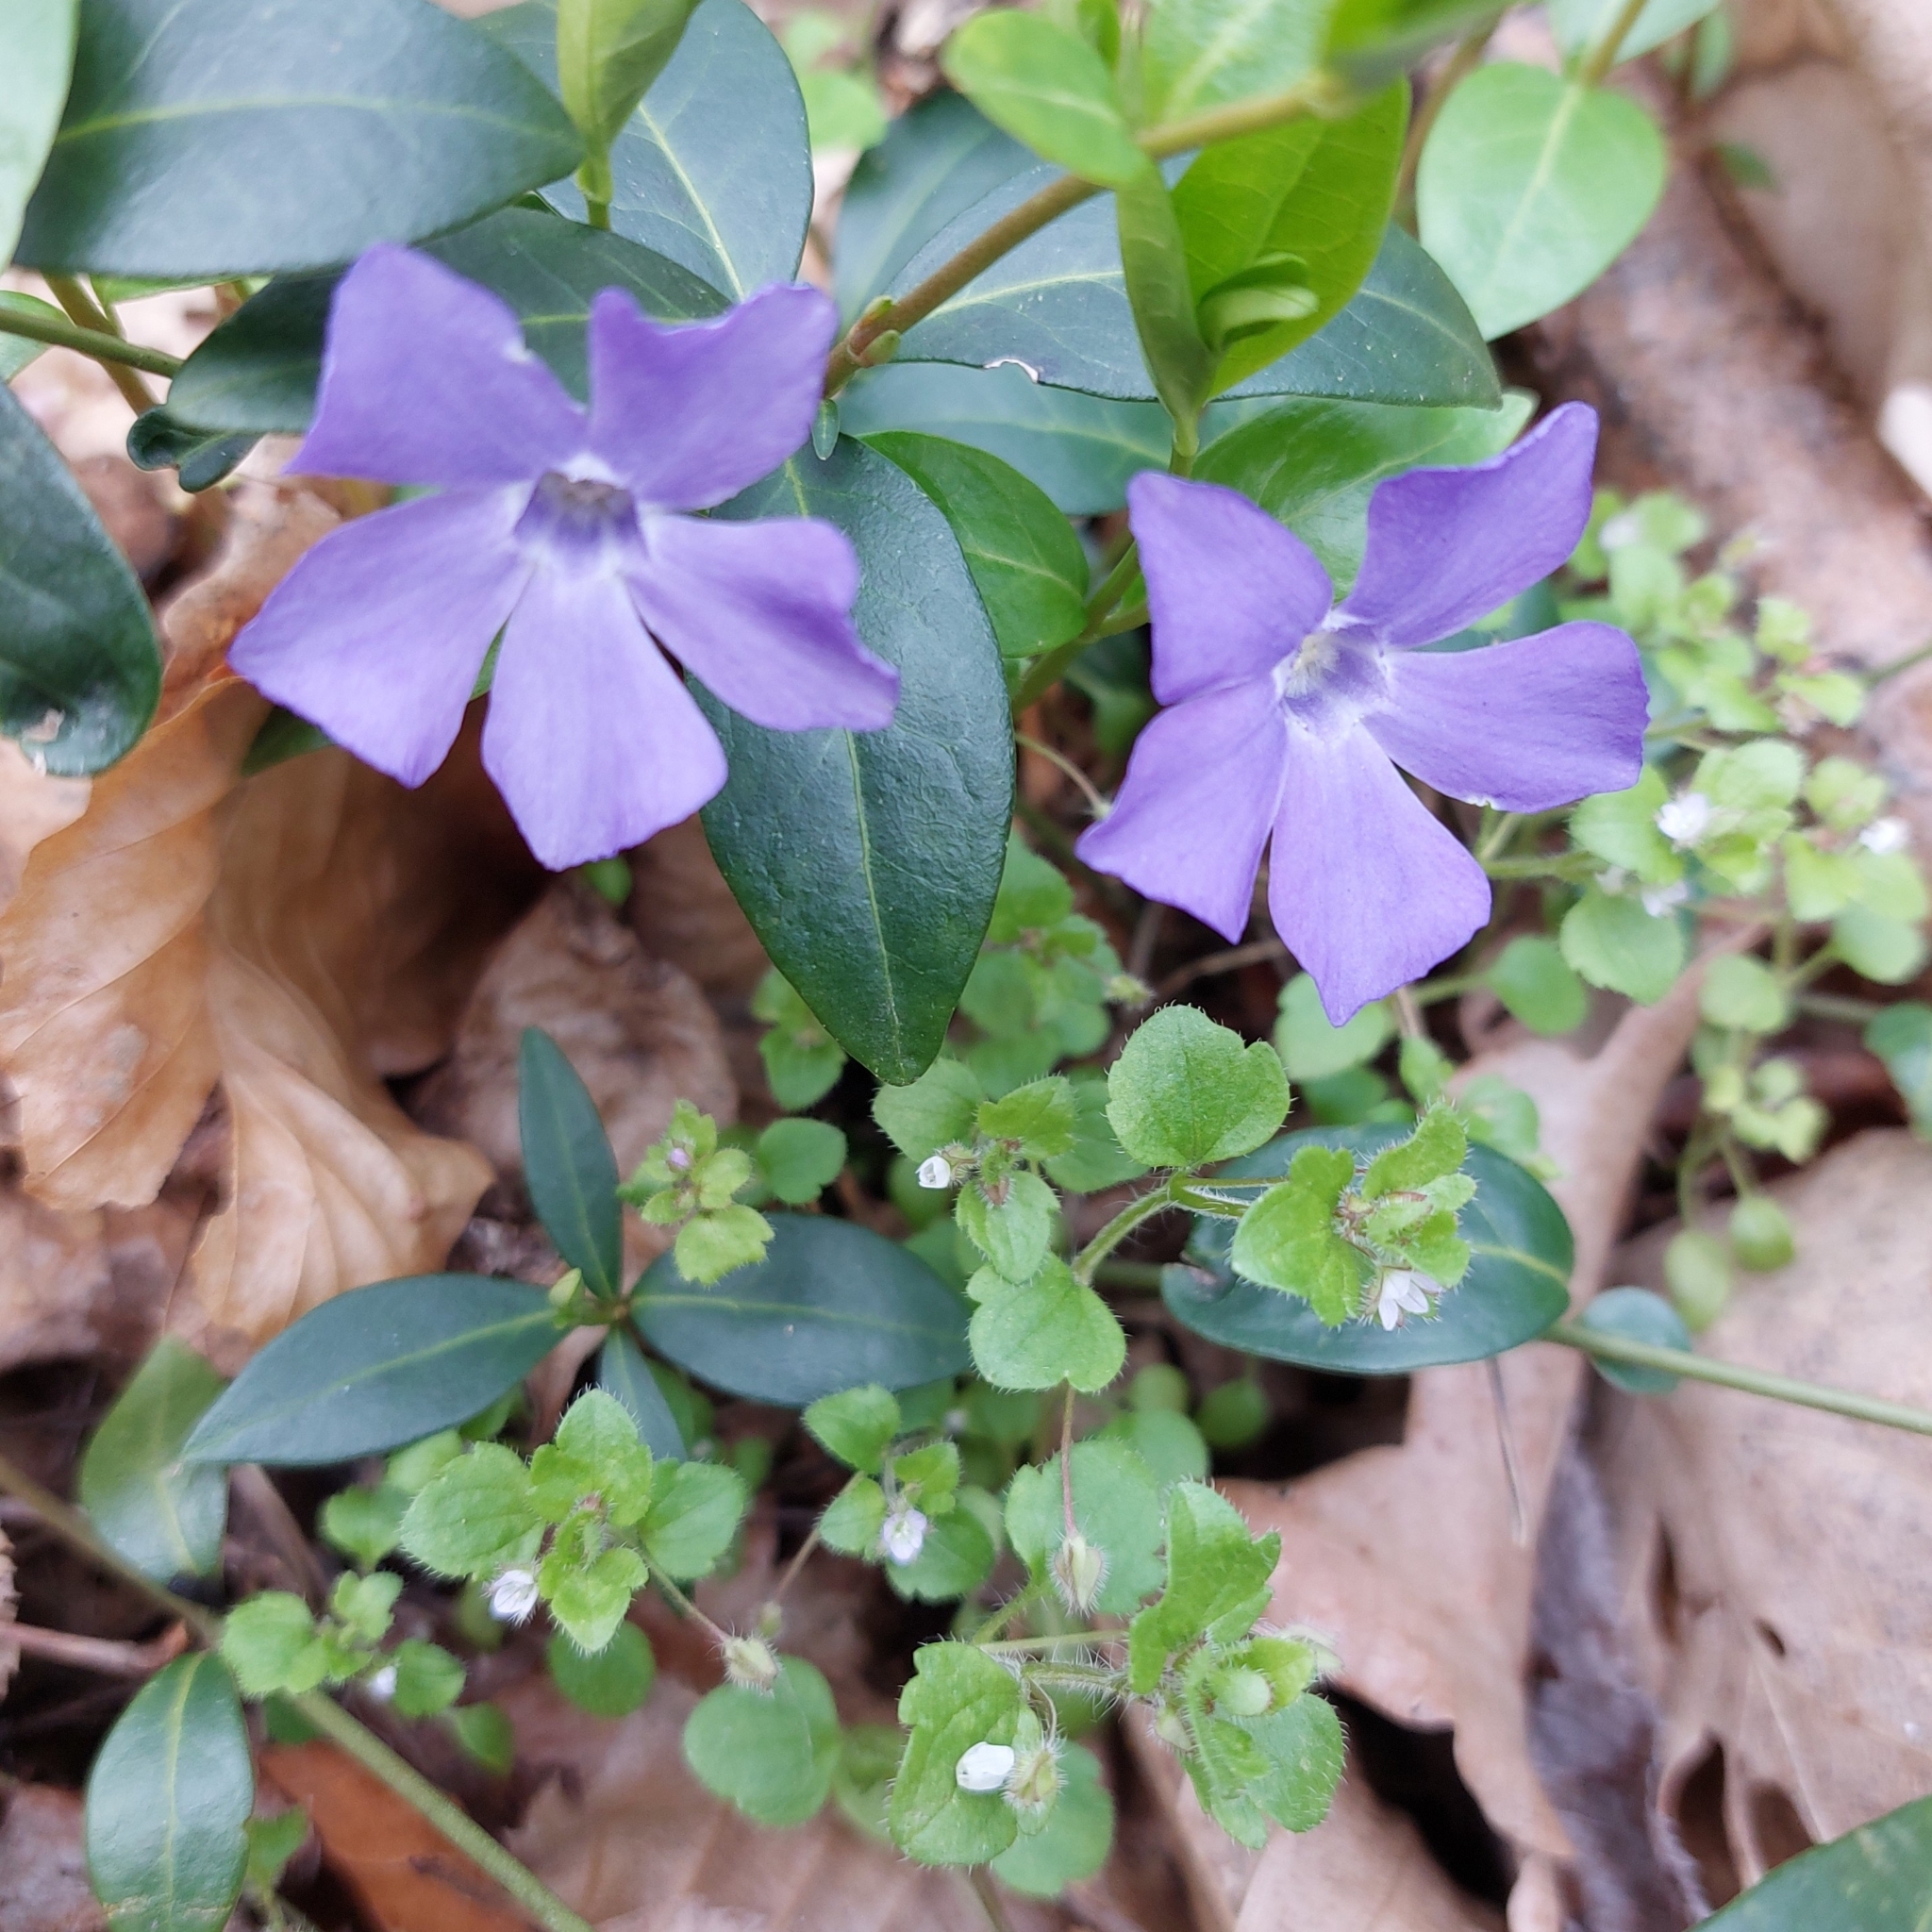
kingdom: Plantae
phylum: Tracheophyta
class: Magnoliopsida
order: Gentianales
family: Apocynaceae
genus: Vinca
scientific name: Vinca minor
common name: Lesser periwinkle
